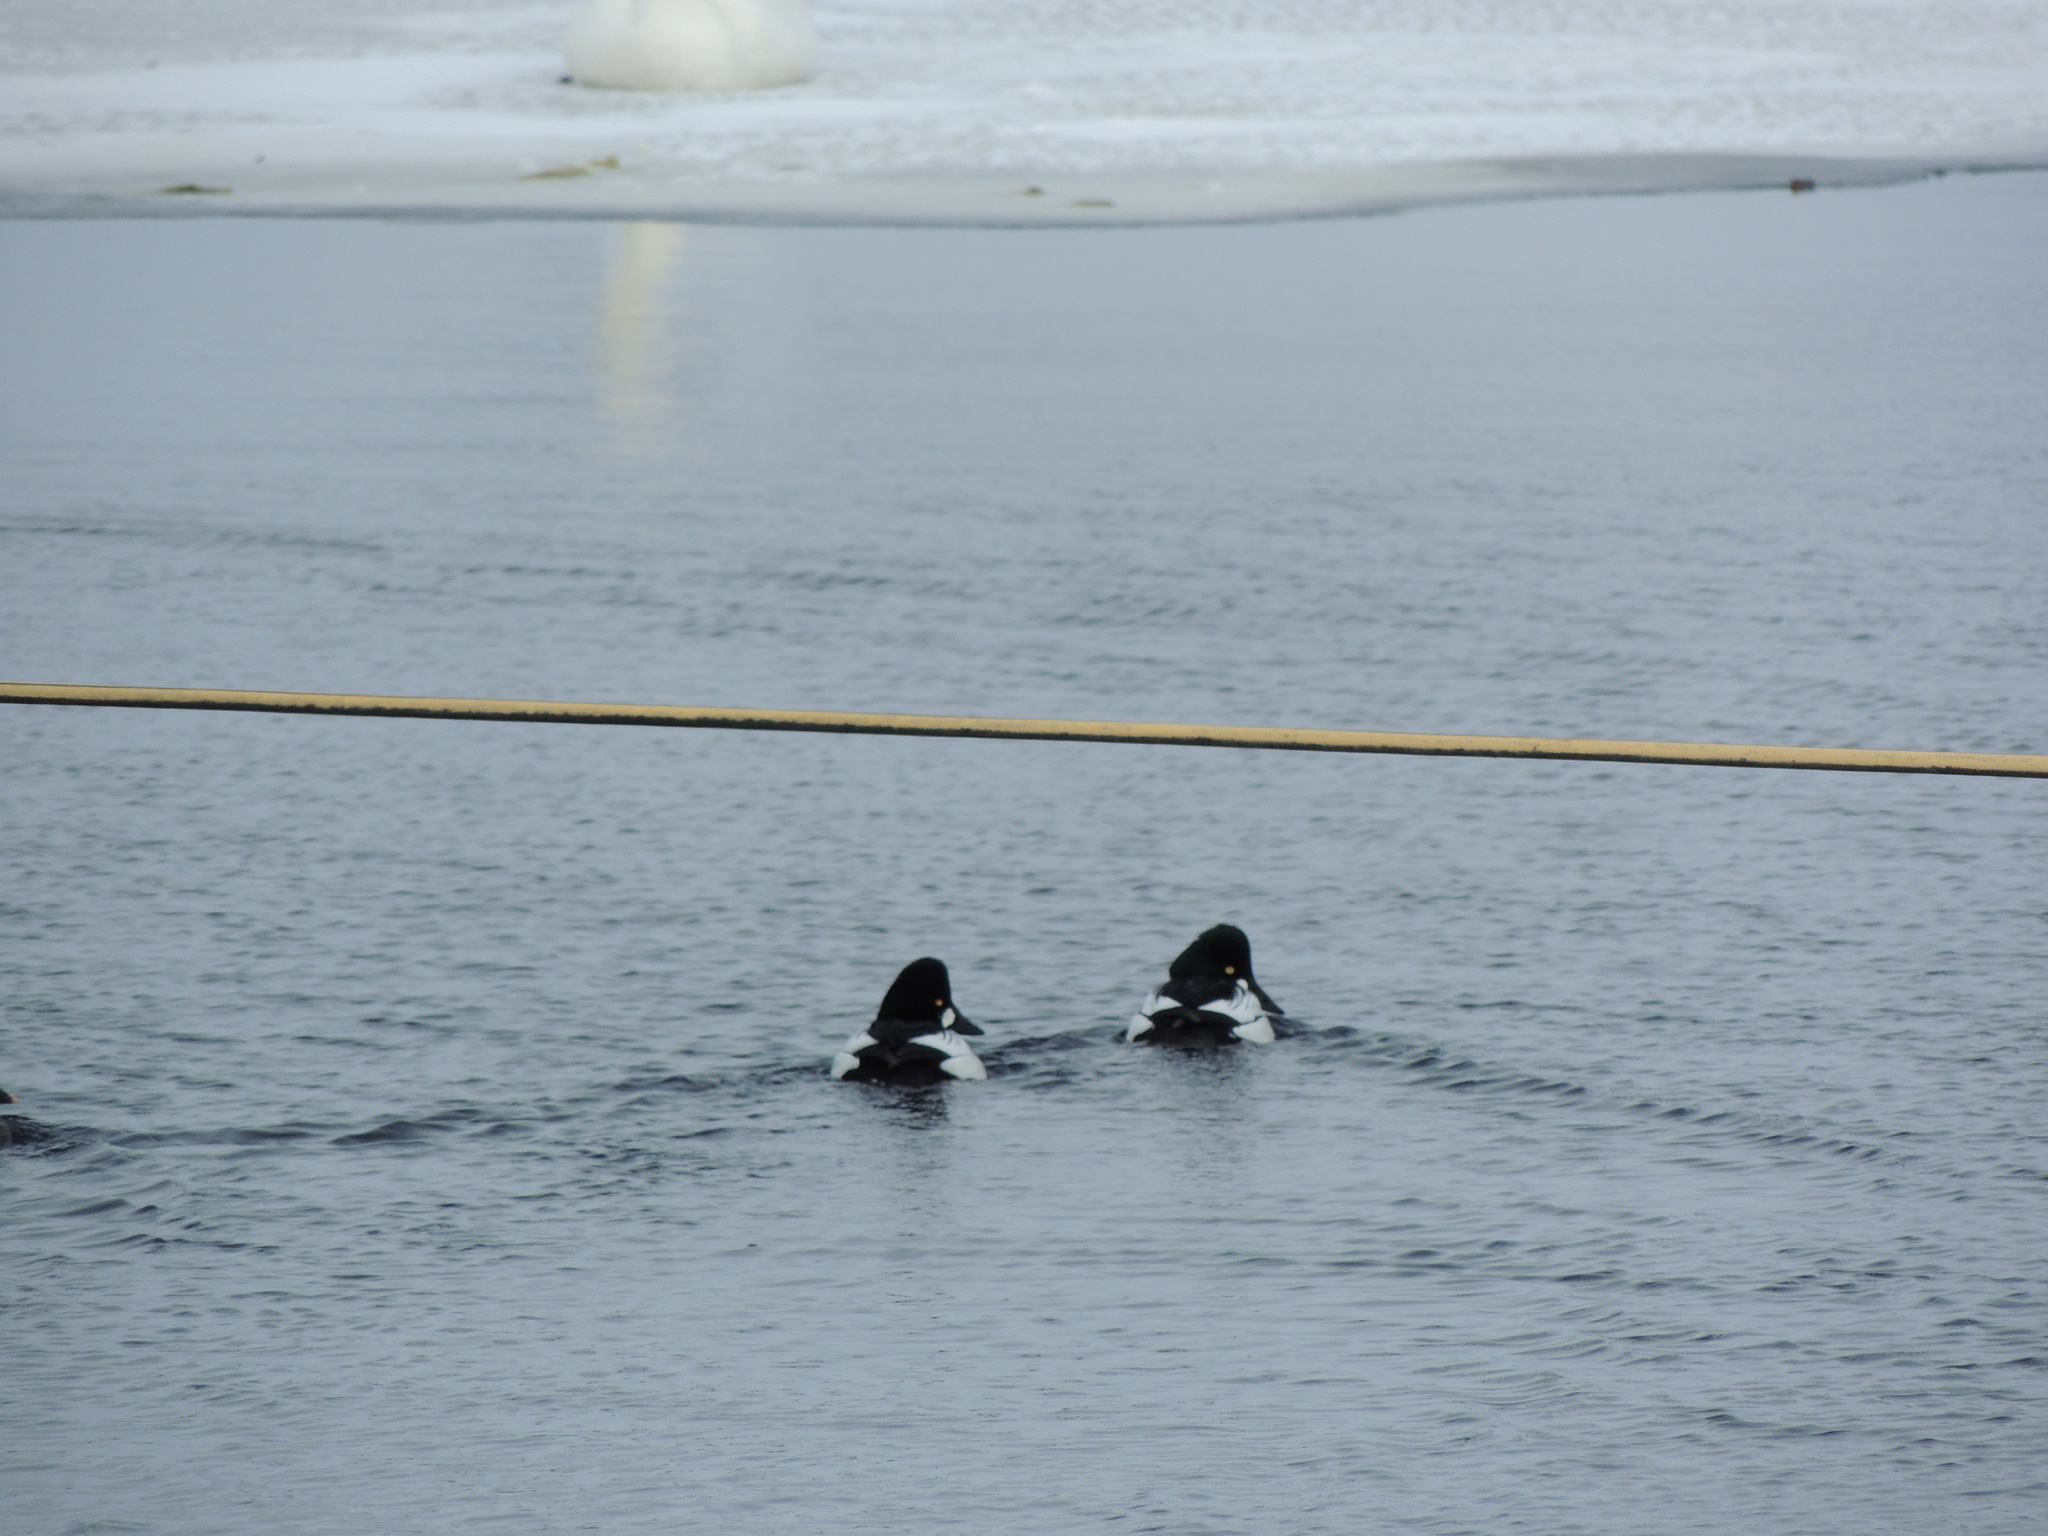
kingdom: Animalia
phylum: Chordata
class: Aves
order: Anseriformes
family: Anatidae
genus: Bucephala
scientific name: Bucephala clangula
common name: Common goldeneye
